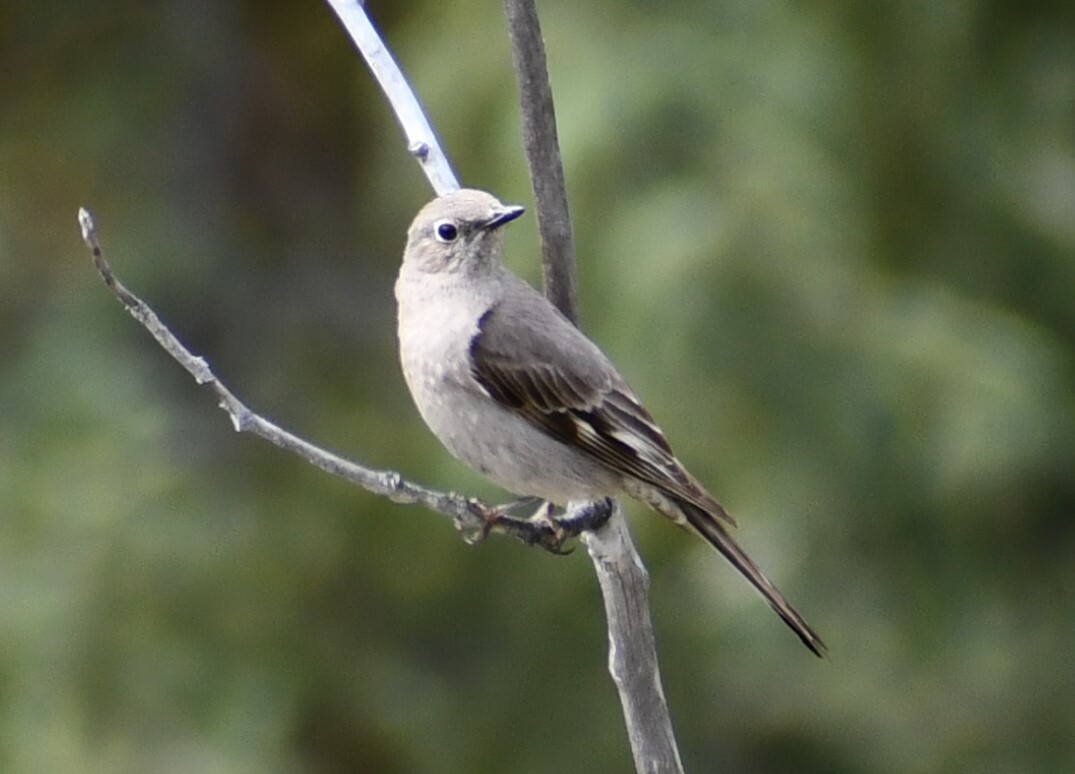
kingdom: Animalia
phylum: Chordata
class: Aves
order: Passeriformes
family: Turdidae
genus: Myadestes
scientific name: Myadestes townsendi
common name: Townsend's solitaire
